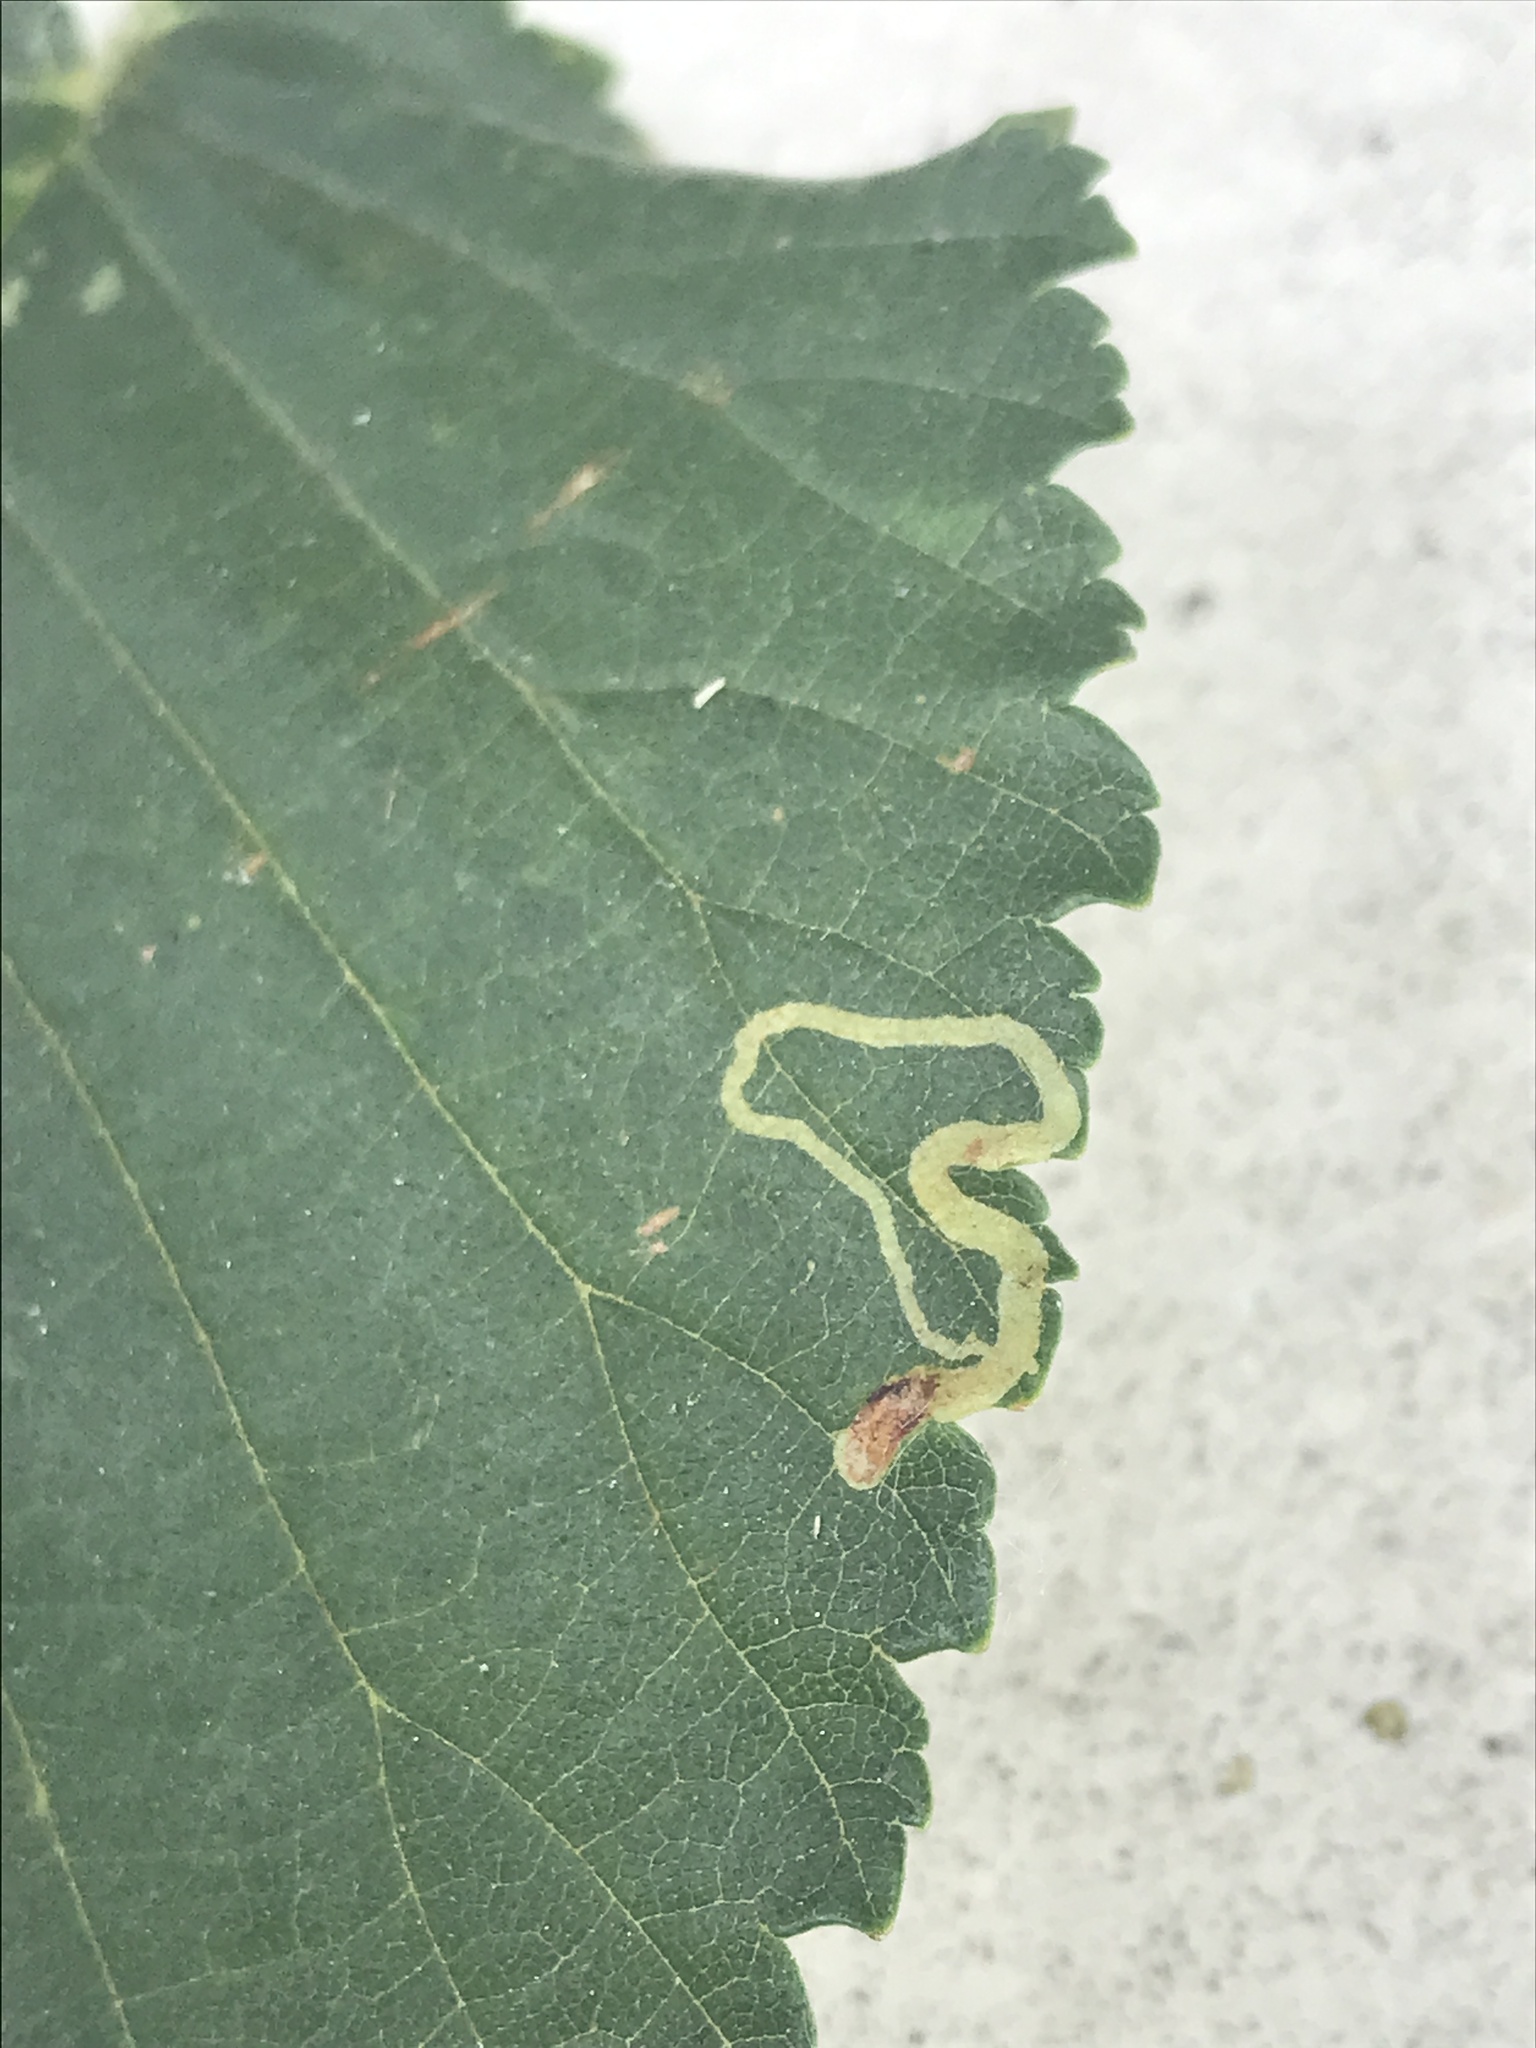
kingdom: Animalia
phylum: Arthropoda
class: Insecta
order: Diptera
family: Agromyzidae
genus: Agromyza
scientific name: Agromyza aristata
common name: Elm agromyzid leafminer
